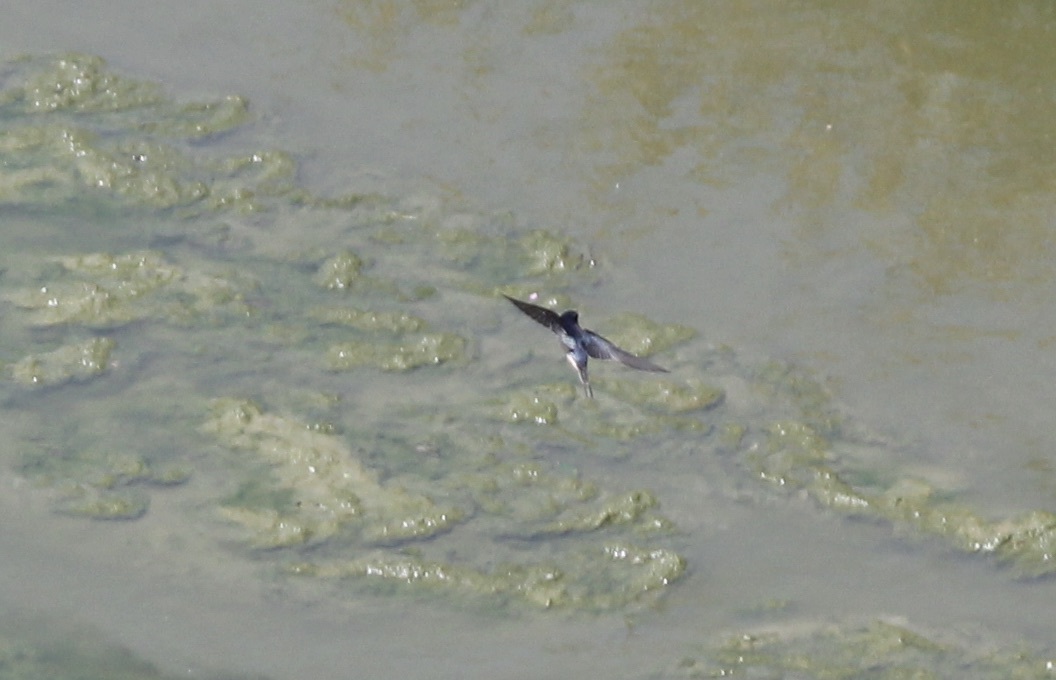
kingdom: Animalia
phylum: Chordata
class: Aves
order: Passeriformes
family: Hirundinidae
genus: Hirundo
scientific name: Hirundo rustica
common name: Barn swallow
